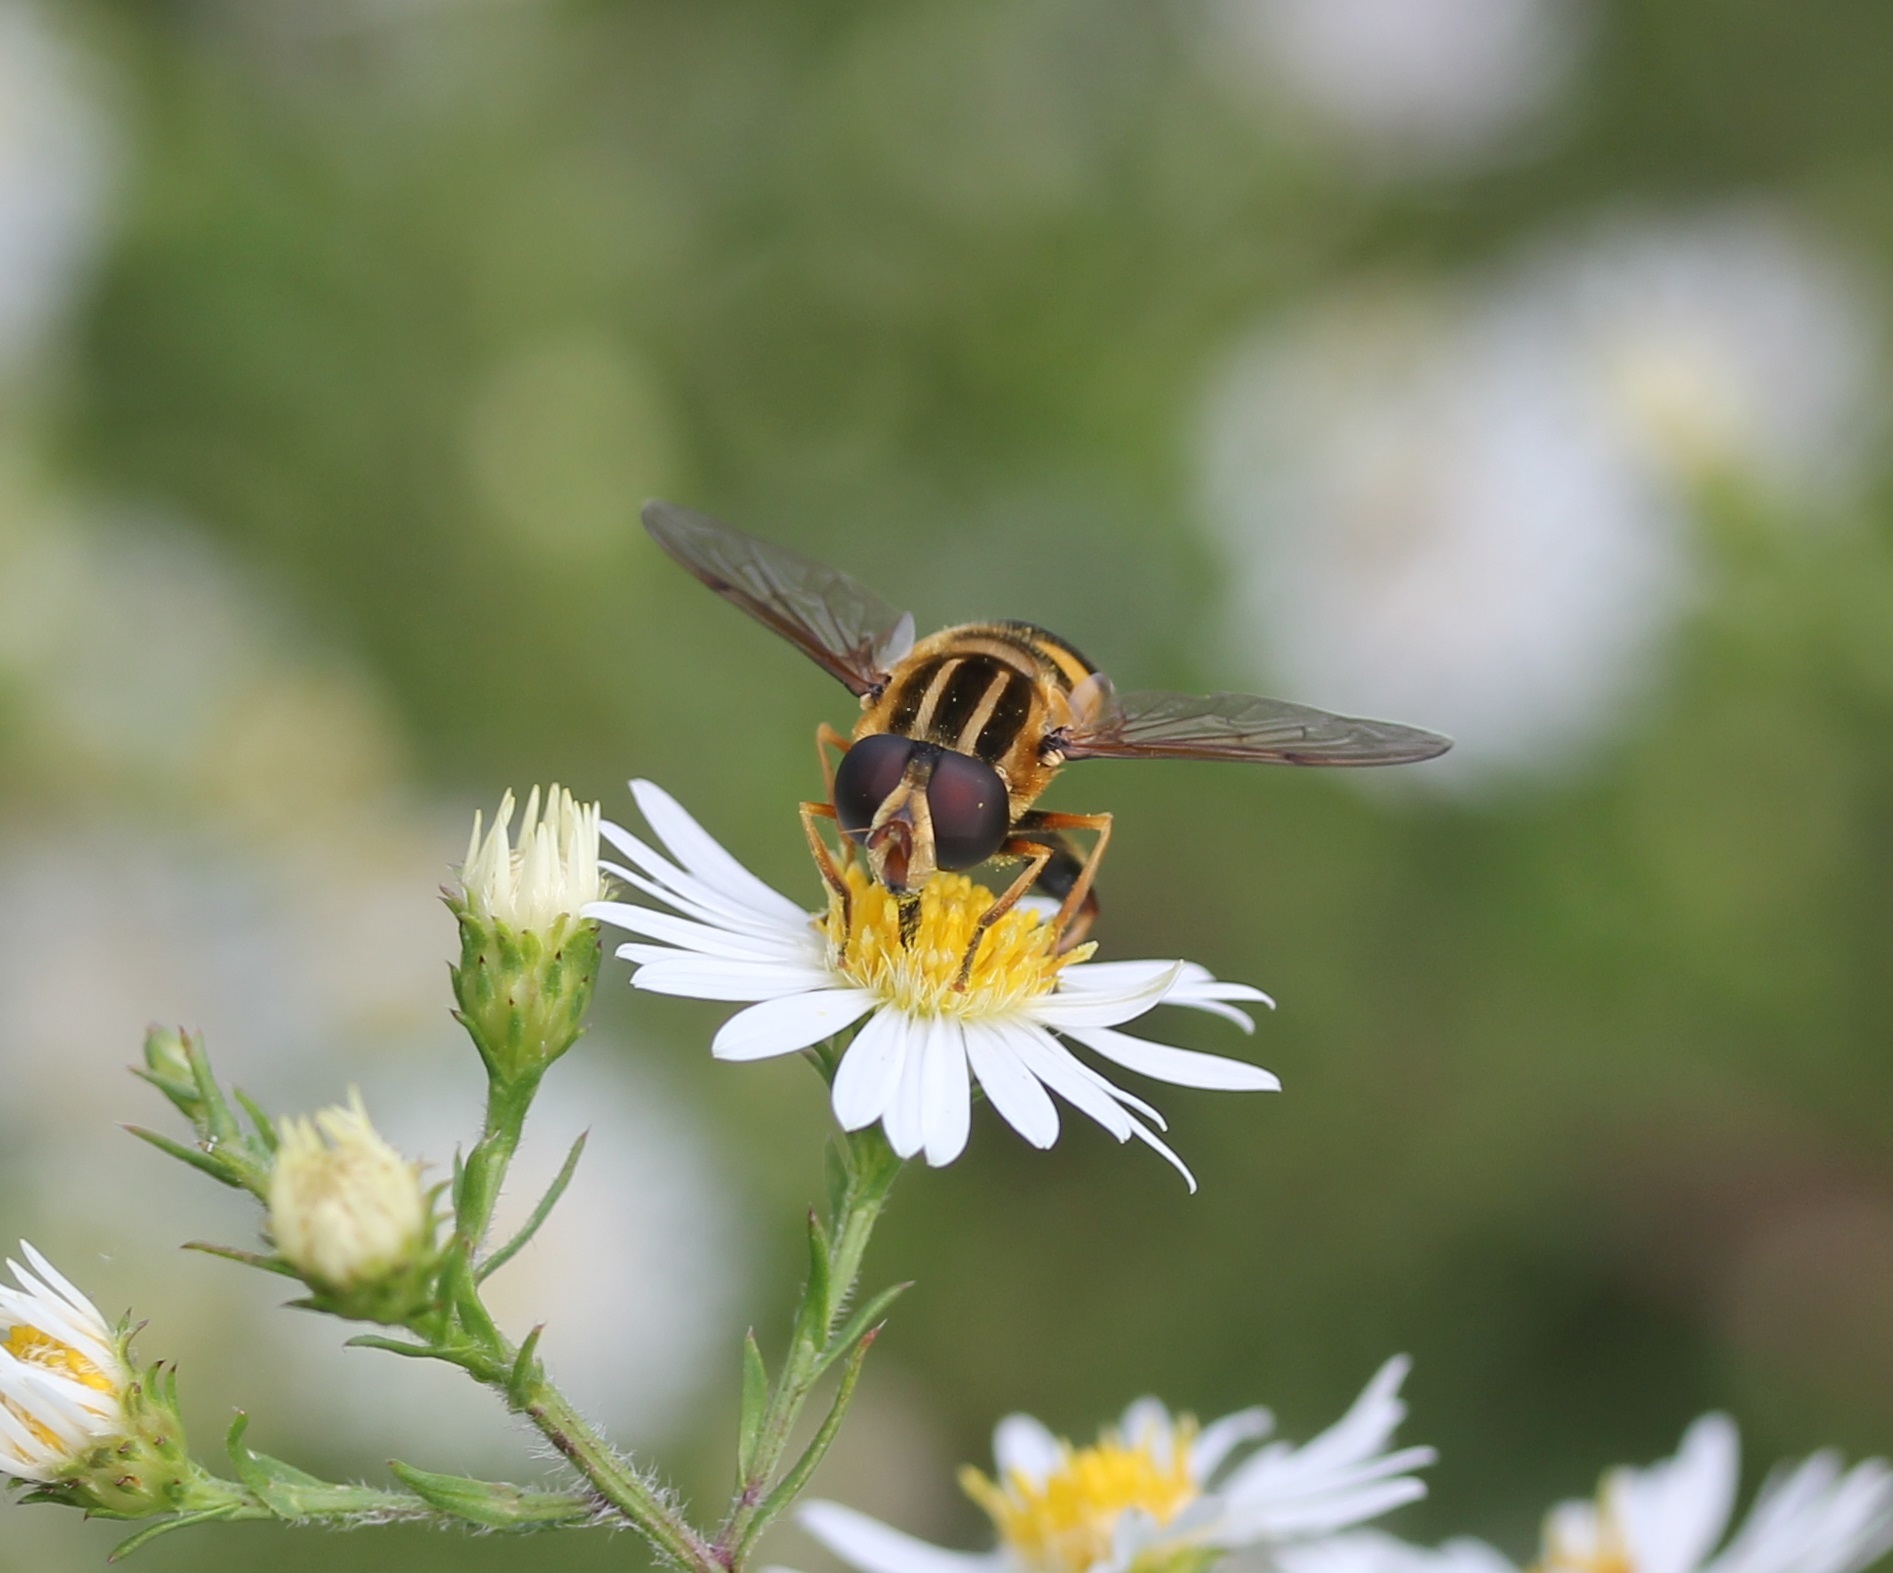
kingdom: Animalia
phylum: Arthropoda
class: Insecta
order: Diptera
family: Syrphidae
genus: Helophilus
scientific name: Helophilus fasciatus
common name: Narrow-headed marsh fly
